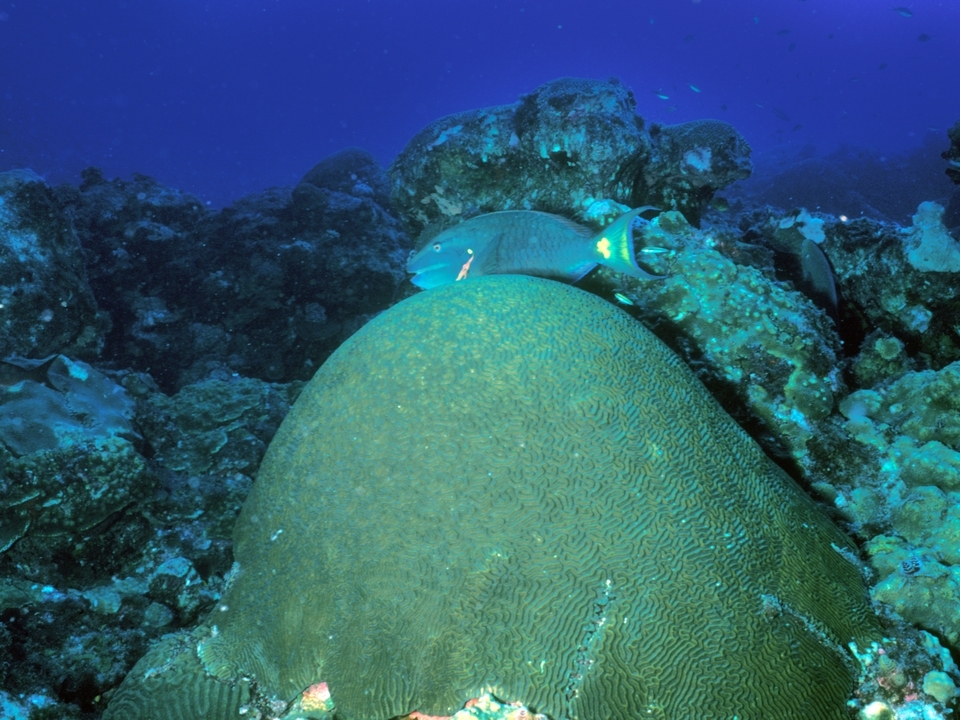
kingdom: Animalia
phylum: Chordata
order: Perciformes
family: Scaridae
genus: Sparisoma
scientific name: Sparisoma viride
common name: Stoplight parrotfish
